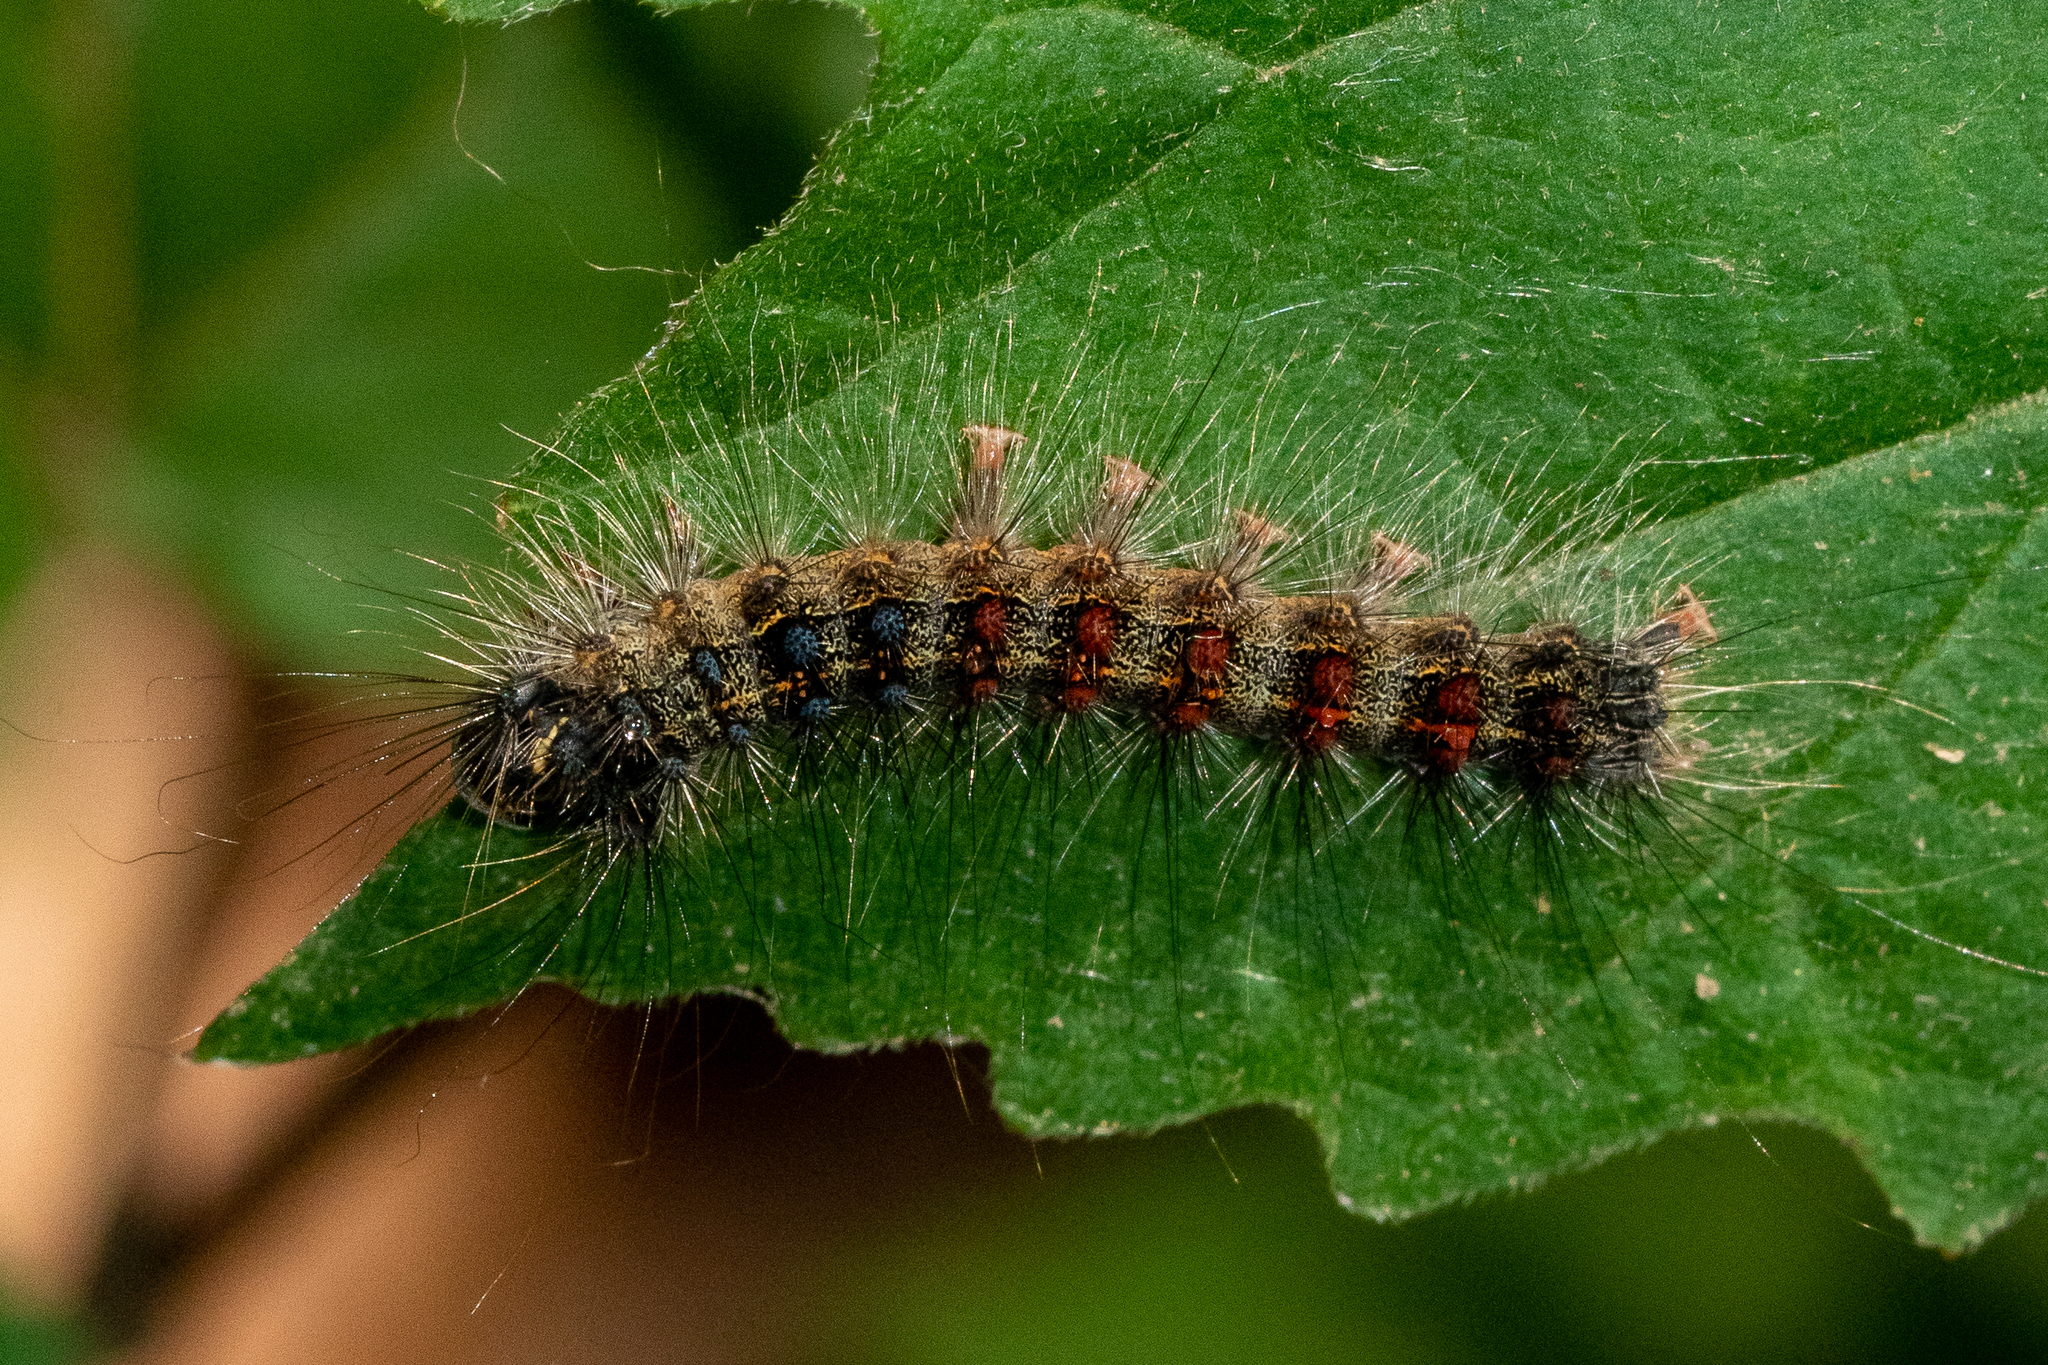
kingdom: Animalia
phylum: Arthropoda
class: Insecta
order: Lepidoptera
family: Erebidae
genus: Lymantria
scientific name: Lymantria dispar
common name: Gypsy moth
